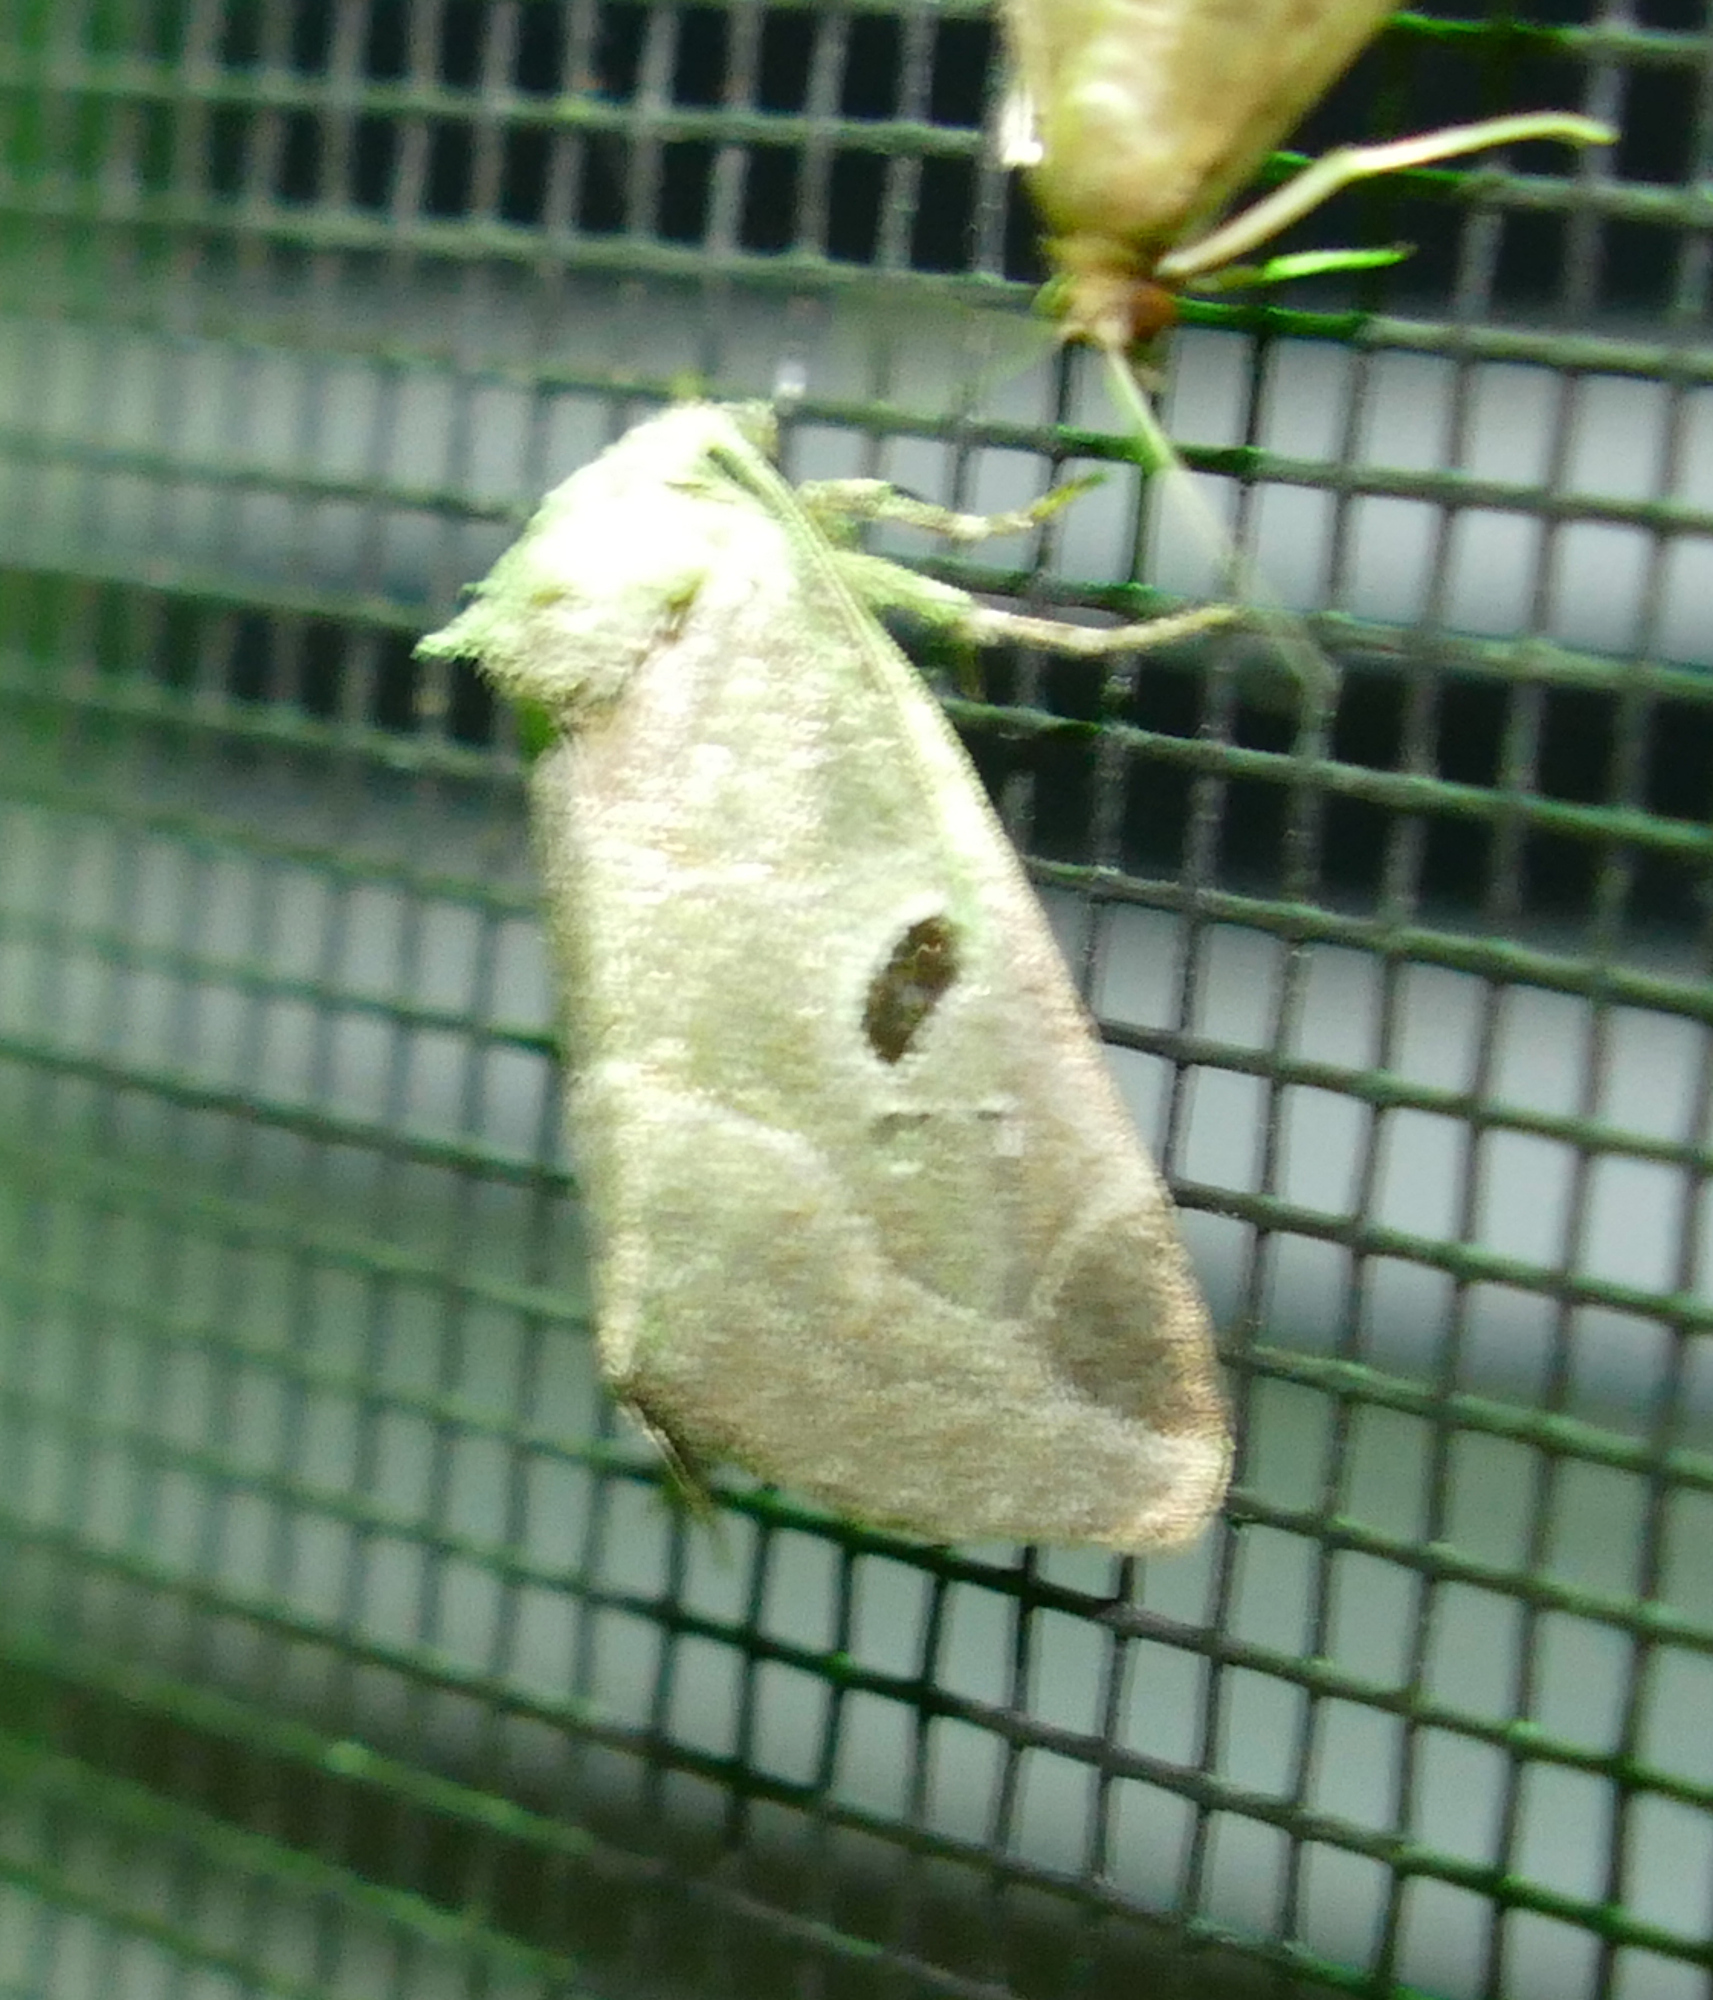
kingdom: Animalia
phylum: Arthropoda
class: Insecta
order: Lepidoptera
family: Noctuidae
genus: Plagiomimicus
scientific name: Plagiomimicus pityochromus
